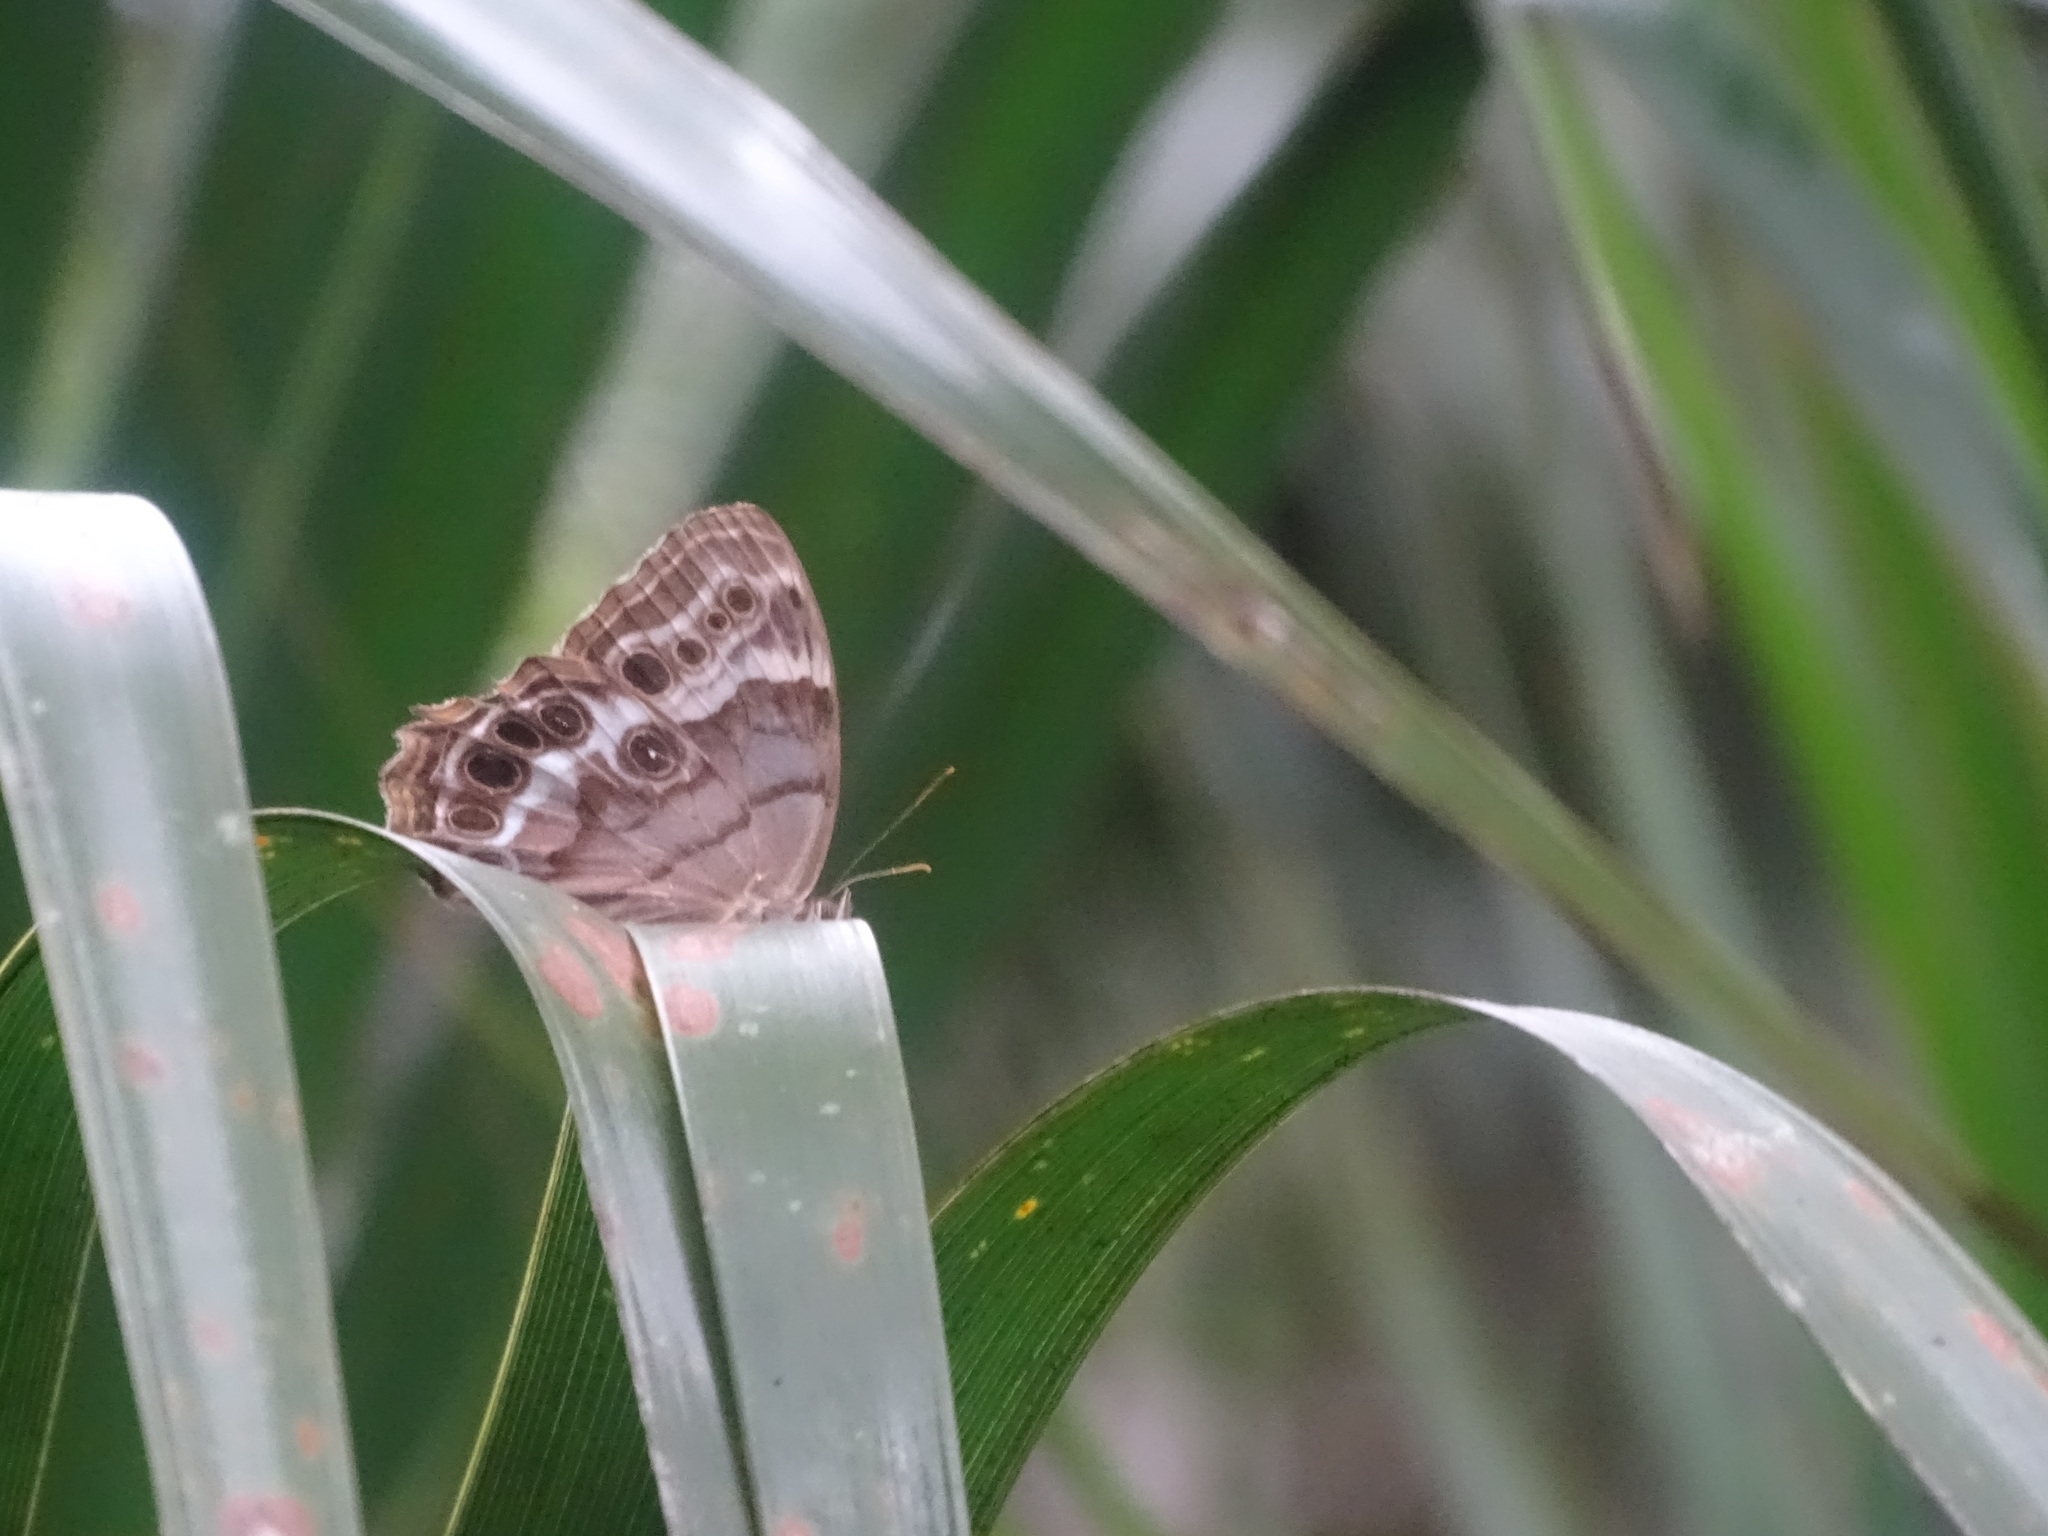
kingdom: Animalia
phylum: Arthropoda
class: Insecta
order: Lepidoptera
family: Nymphalidae
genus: Enodia
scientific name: Enodia portlandia
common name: Southern pearly-eye
